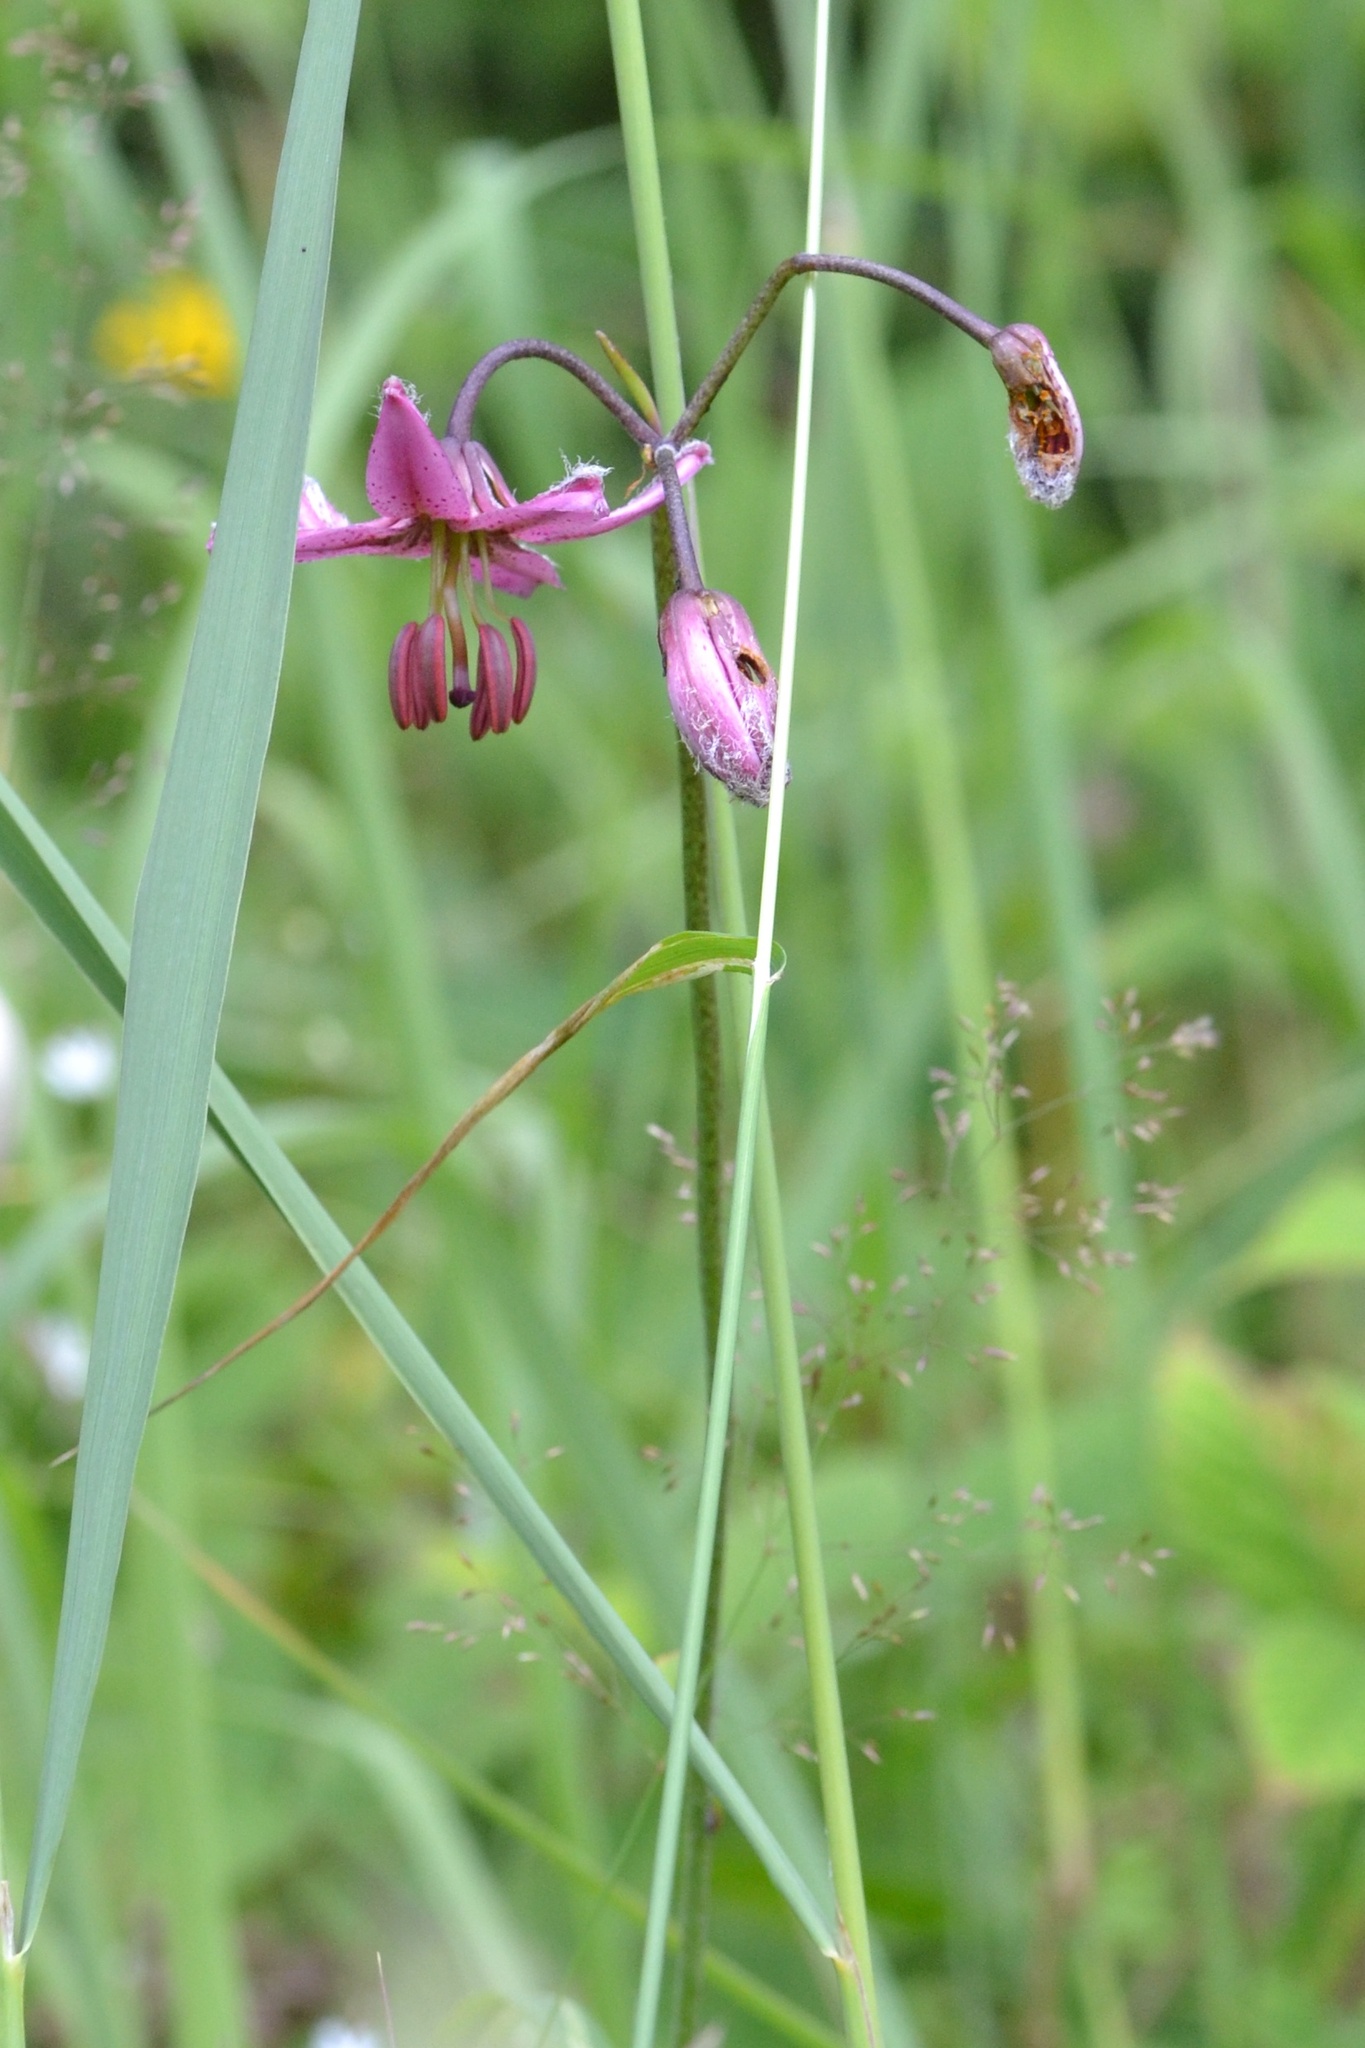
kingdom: Plantae
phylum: Tracheophyta
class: Liliopsida
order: Liliales
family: Liliaceae
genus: Lilium
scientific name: Lilium martagon
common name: Martagon lily
